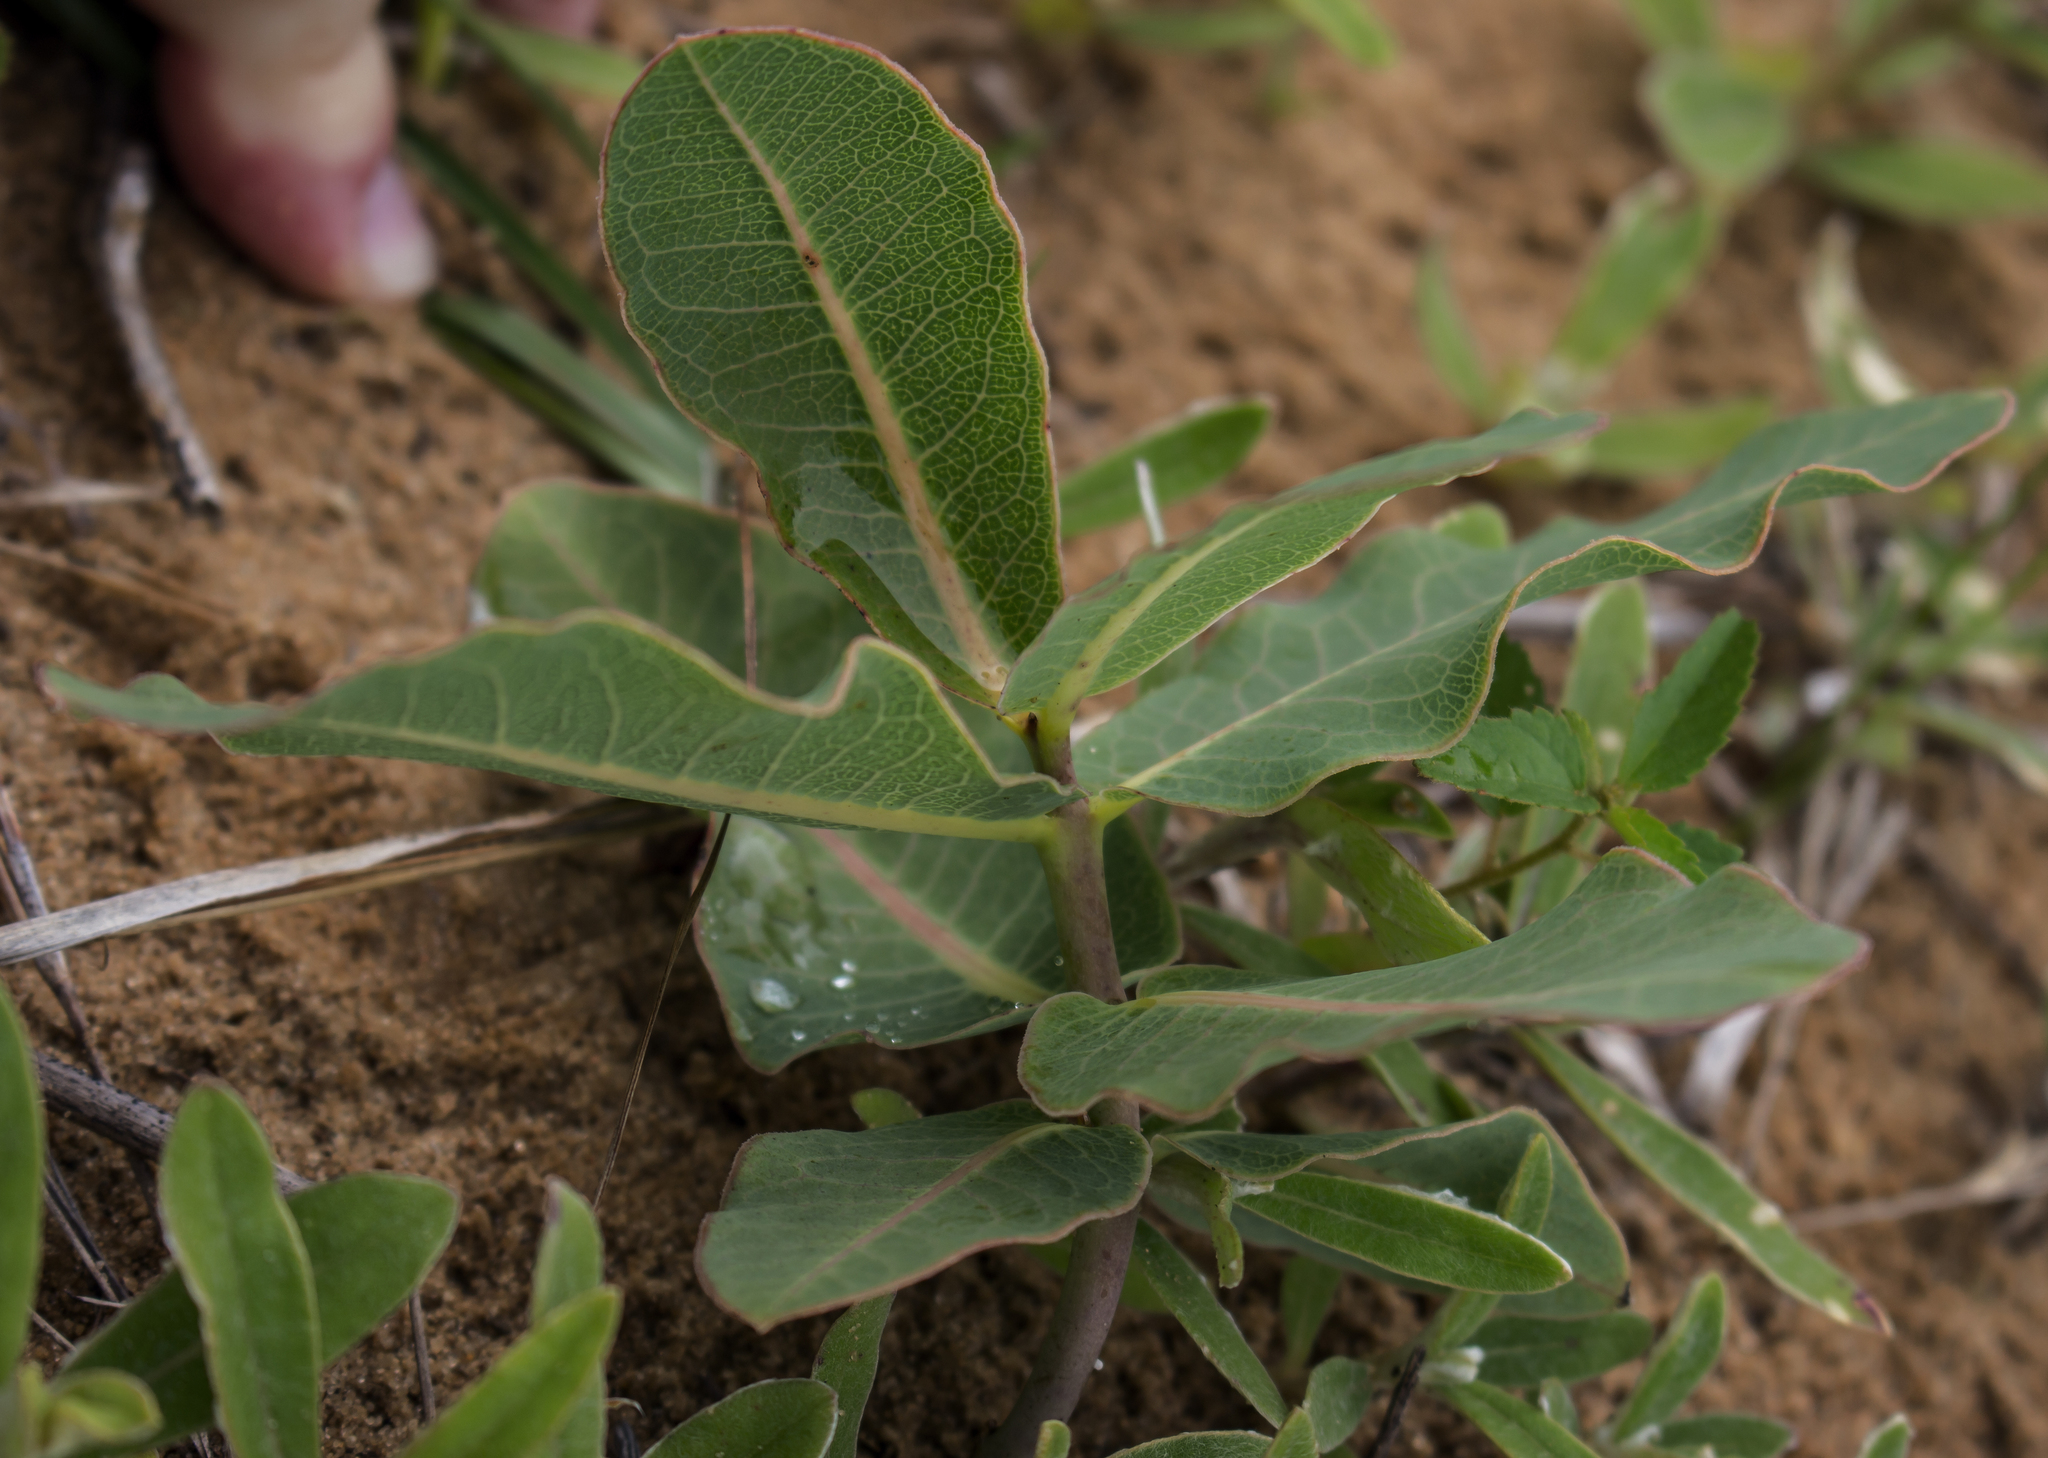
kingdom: Plantae
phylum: Tracheophyta
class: Magnoliopsida
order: Gentianales
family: Apocynaceae
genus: Asclepias
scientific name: Asclepias amplexicaulis
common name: Blunt-leaf milkweed
